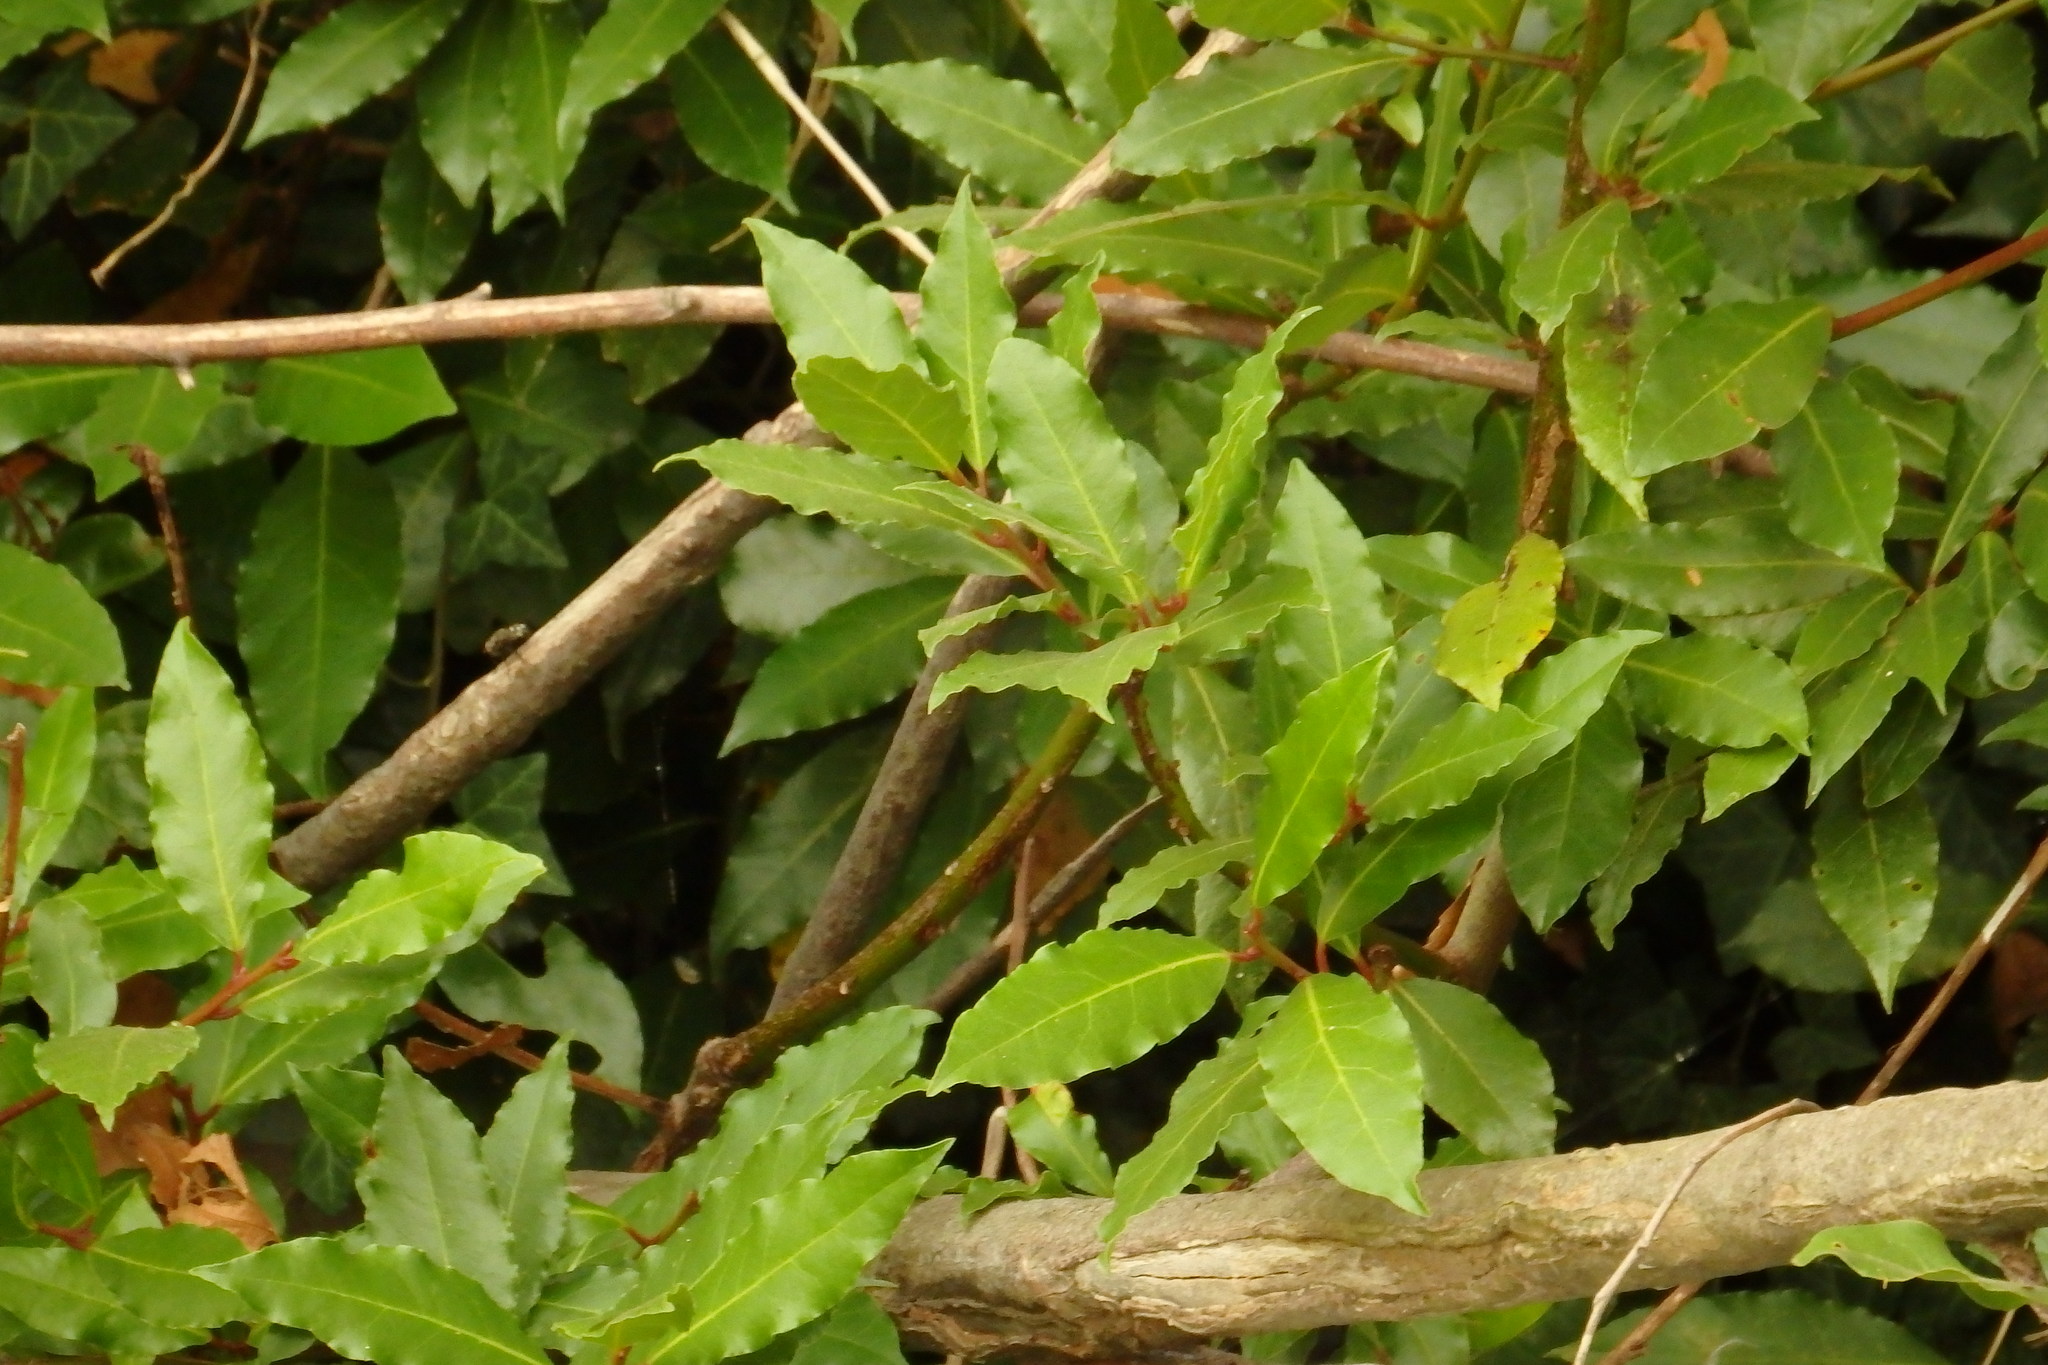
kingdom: Plantae
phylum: Tracheophyta
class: Magnoliopsida
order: Laurales
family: Lauraceae
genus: Laurus
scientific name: Laurus nobilis
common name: Bay
